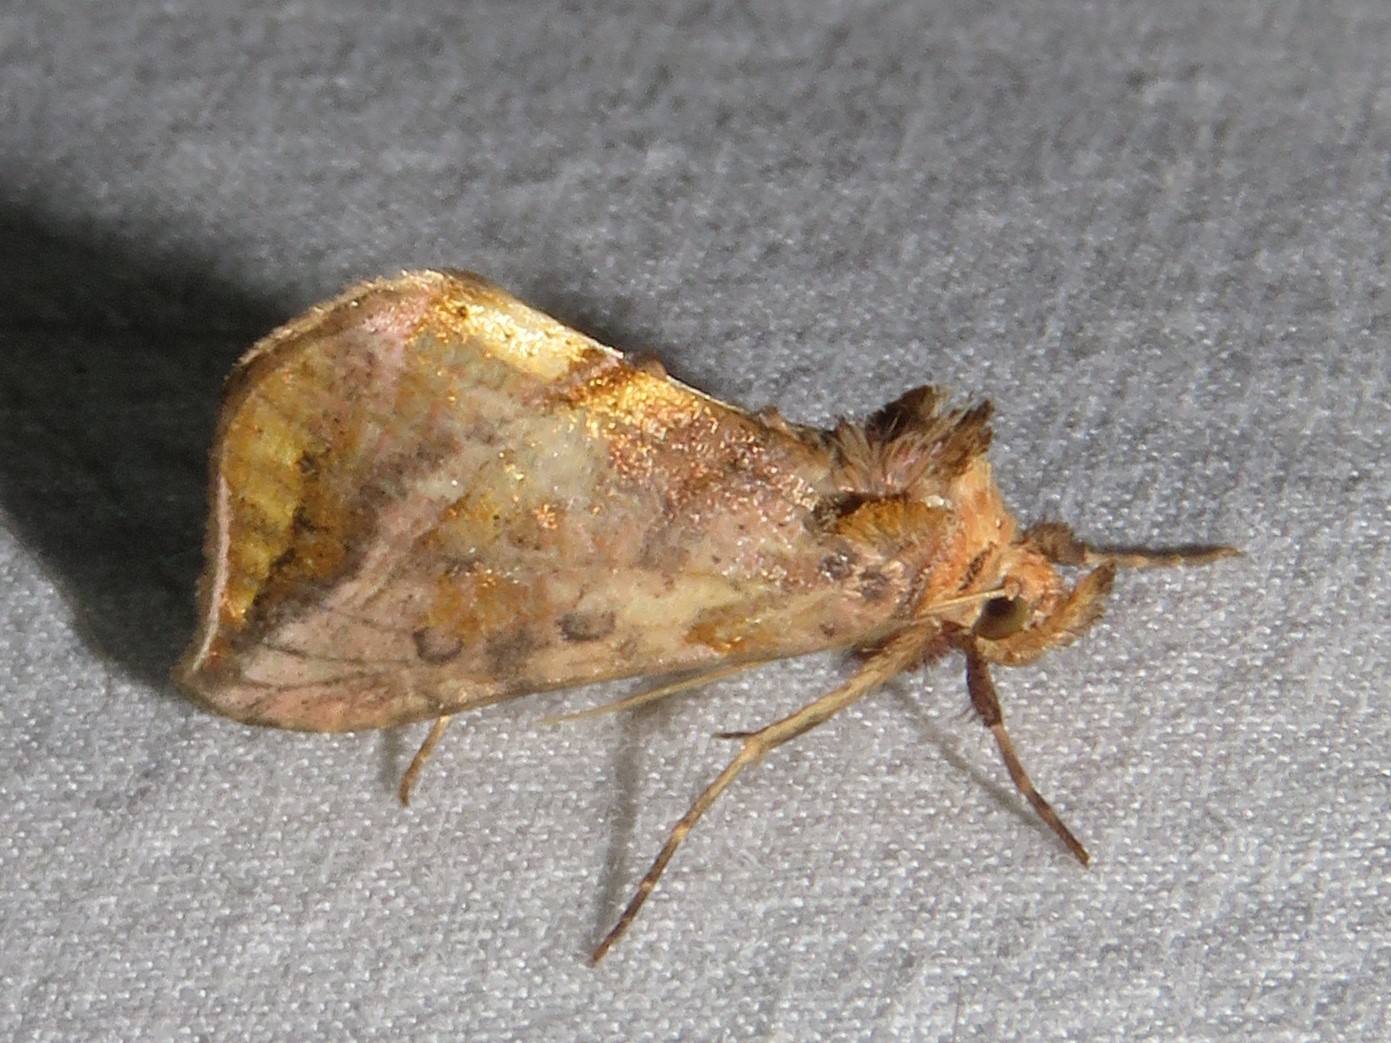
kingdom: Animalia
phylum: Arthropoda
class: Insecta
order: Lepidoptera
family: Noctuidae
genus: Allagrapha
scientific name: Allagrapha aerea
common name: Unspotted looper moth
